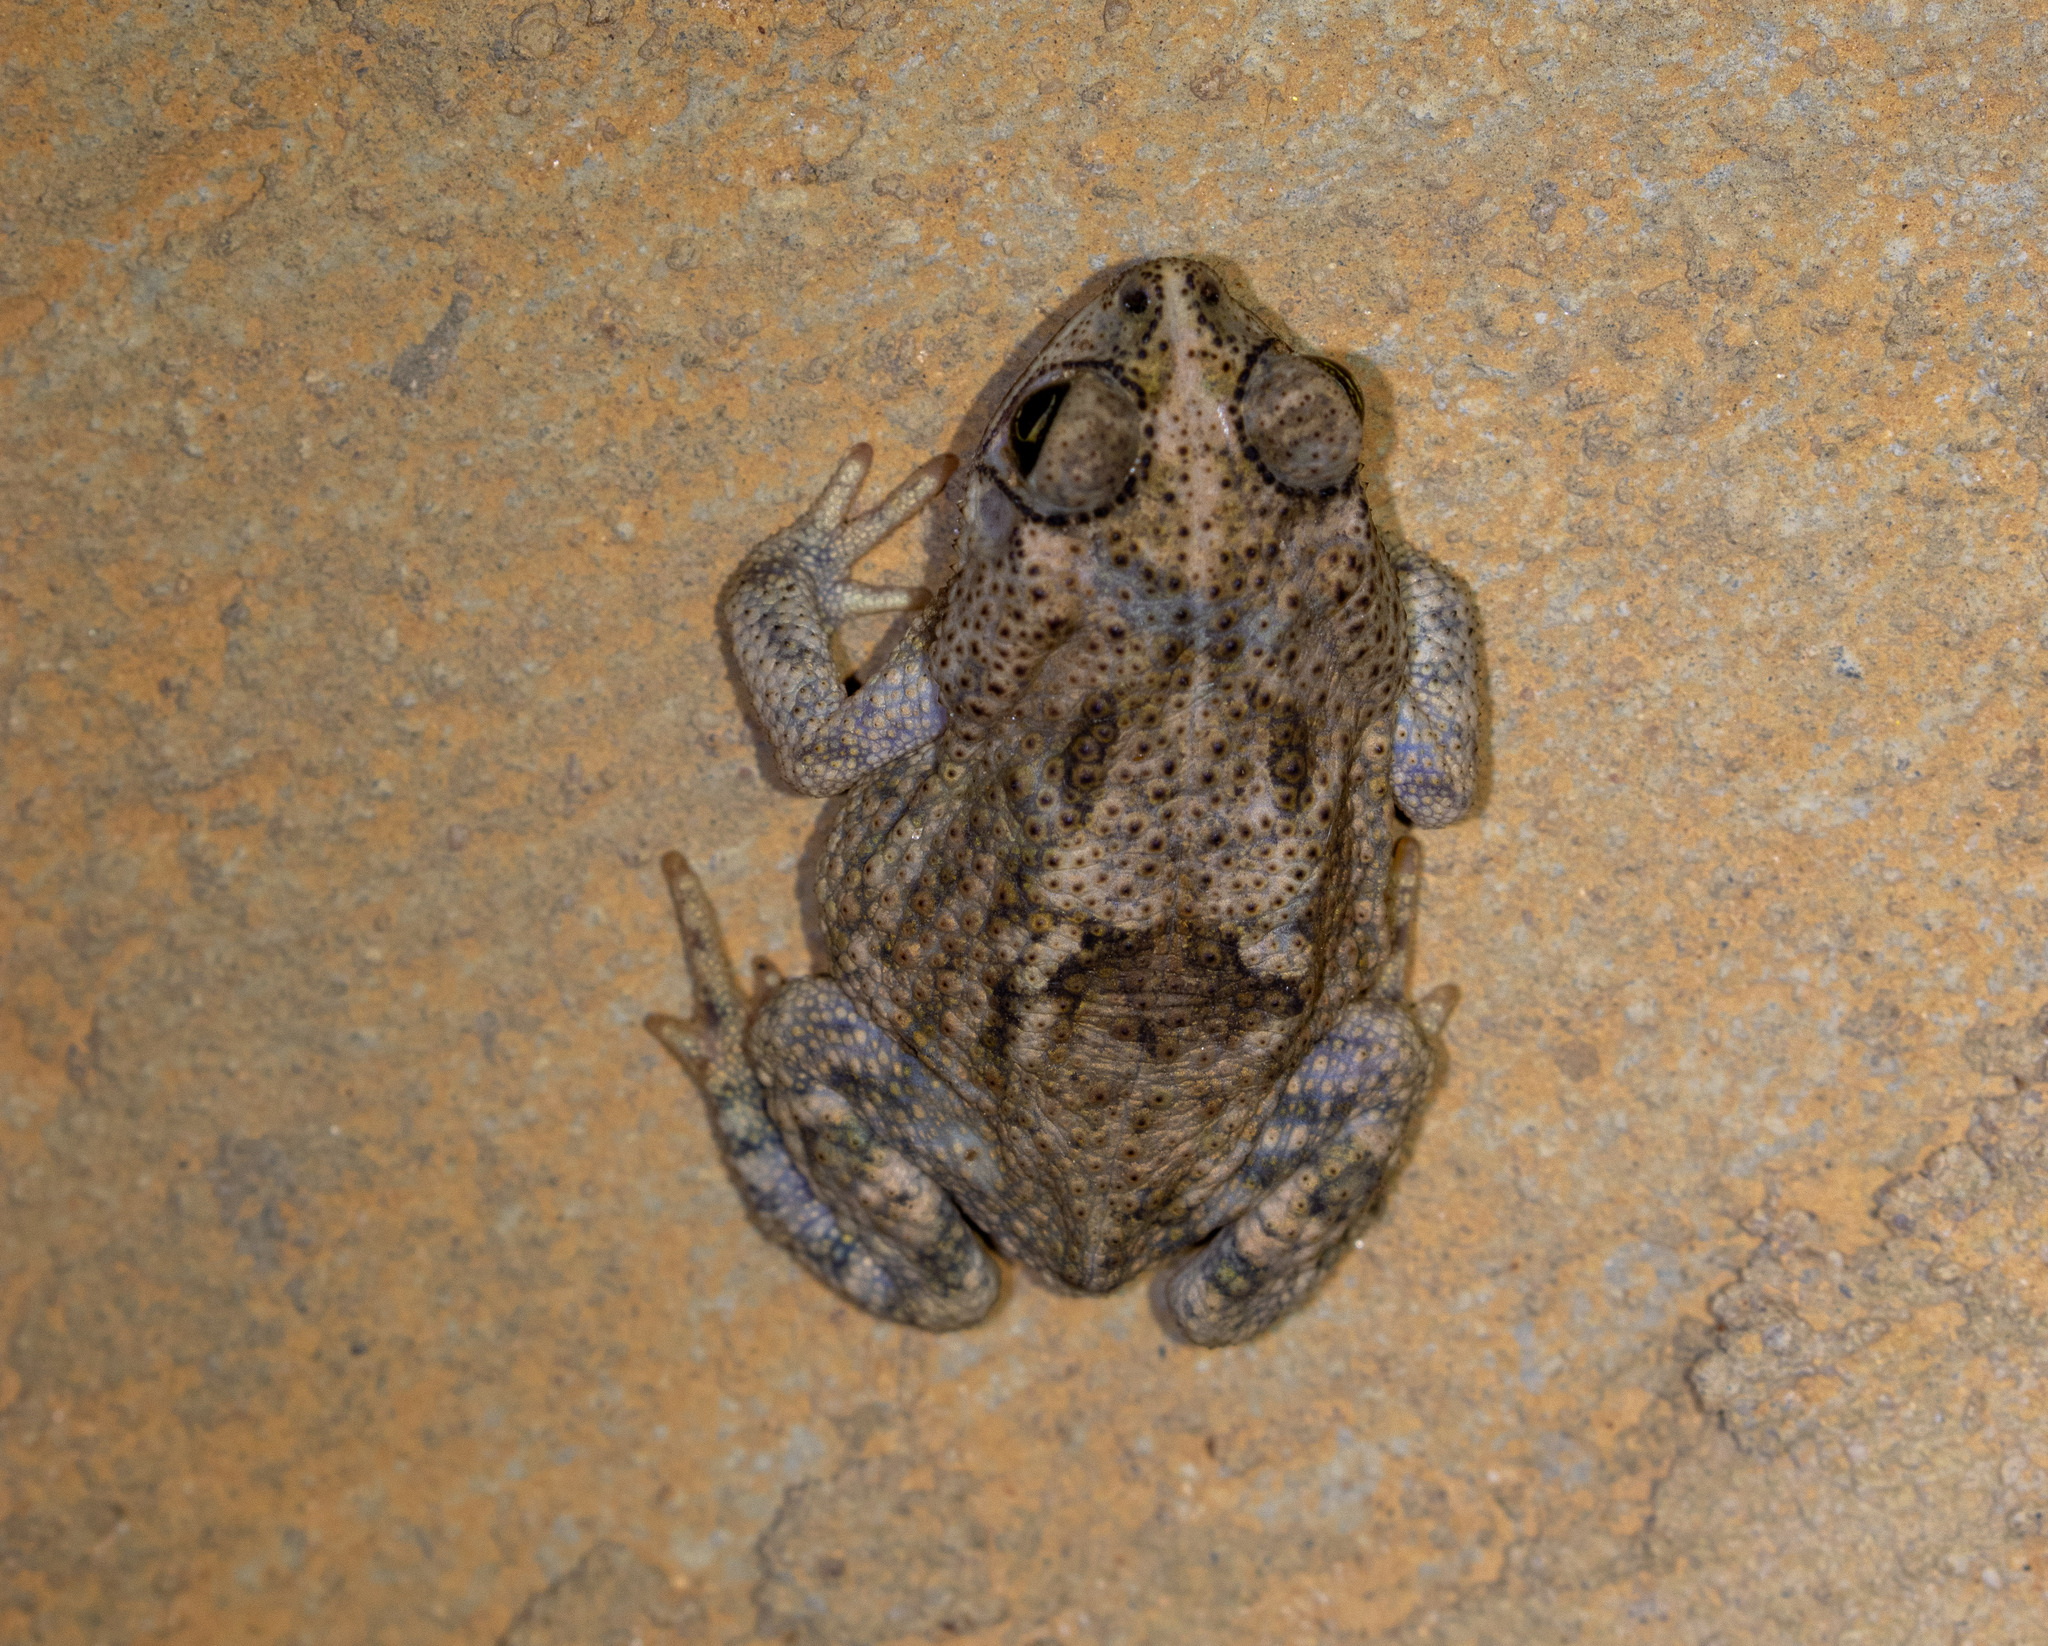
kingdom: Animalia
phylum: Chordata
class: Amphibia
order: Anura
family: Bufonidae
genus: Rhinella
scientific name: Rhinella granulosa
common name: Common lesser toad
